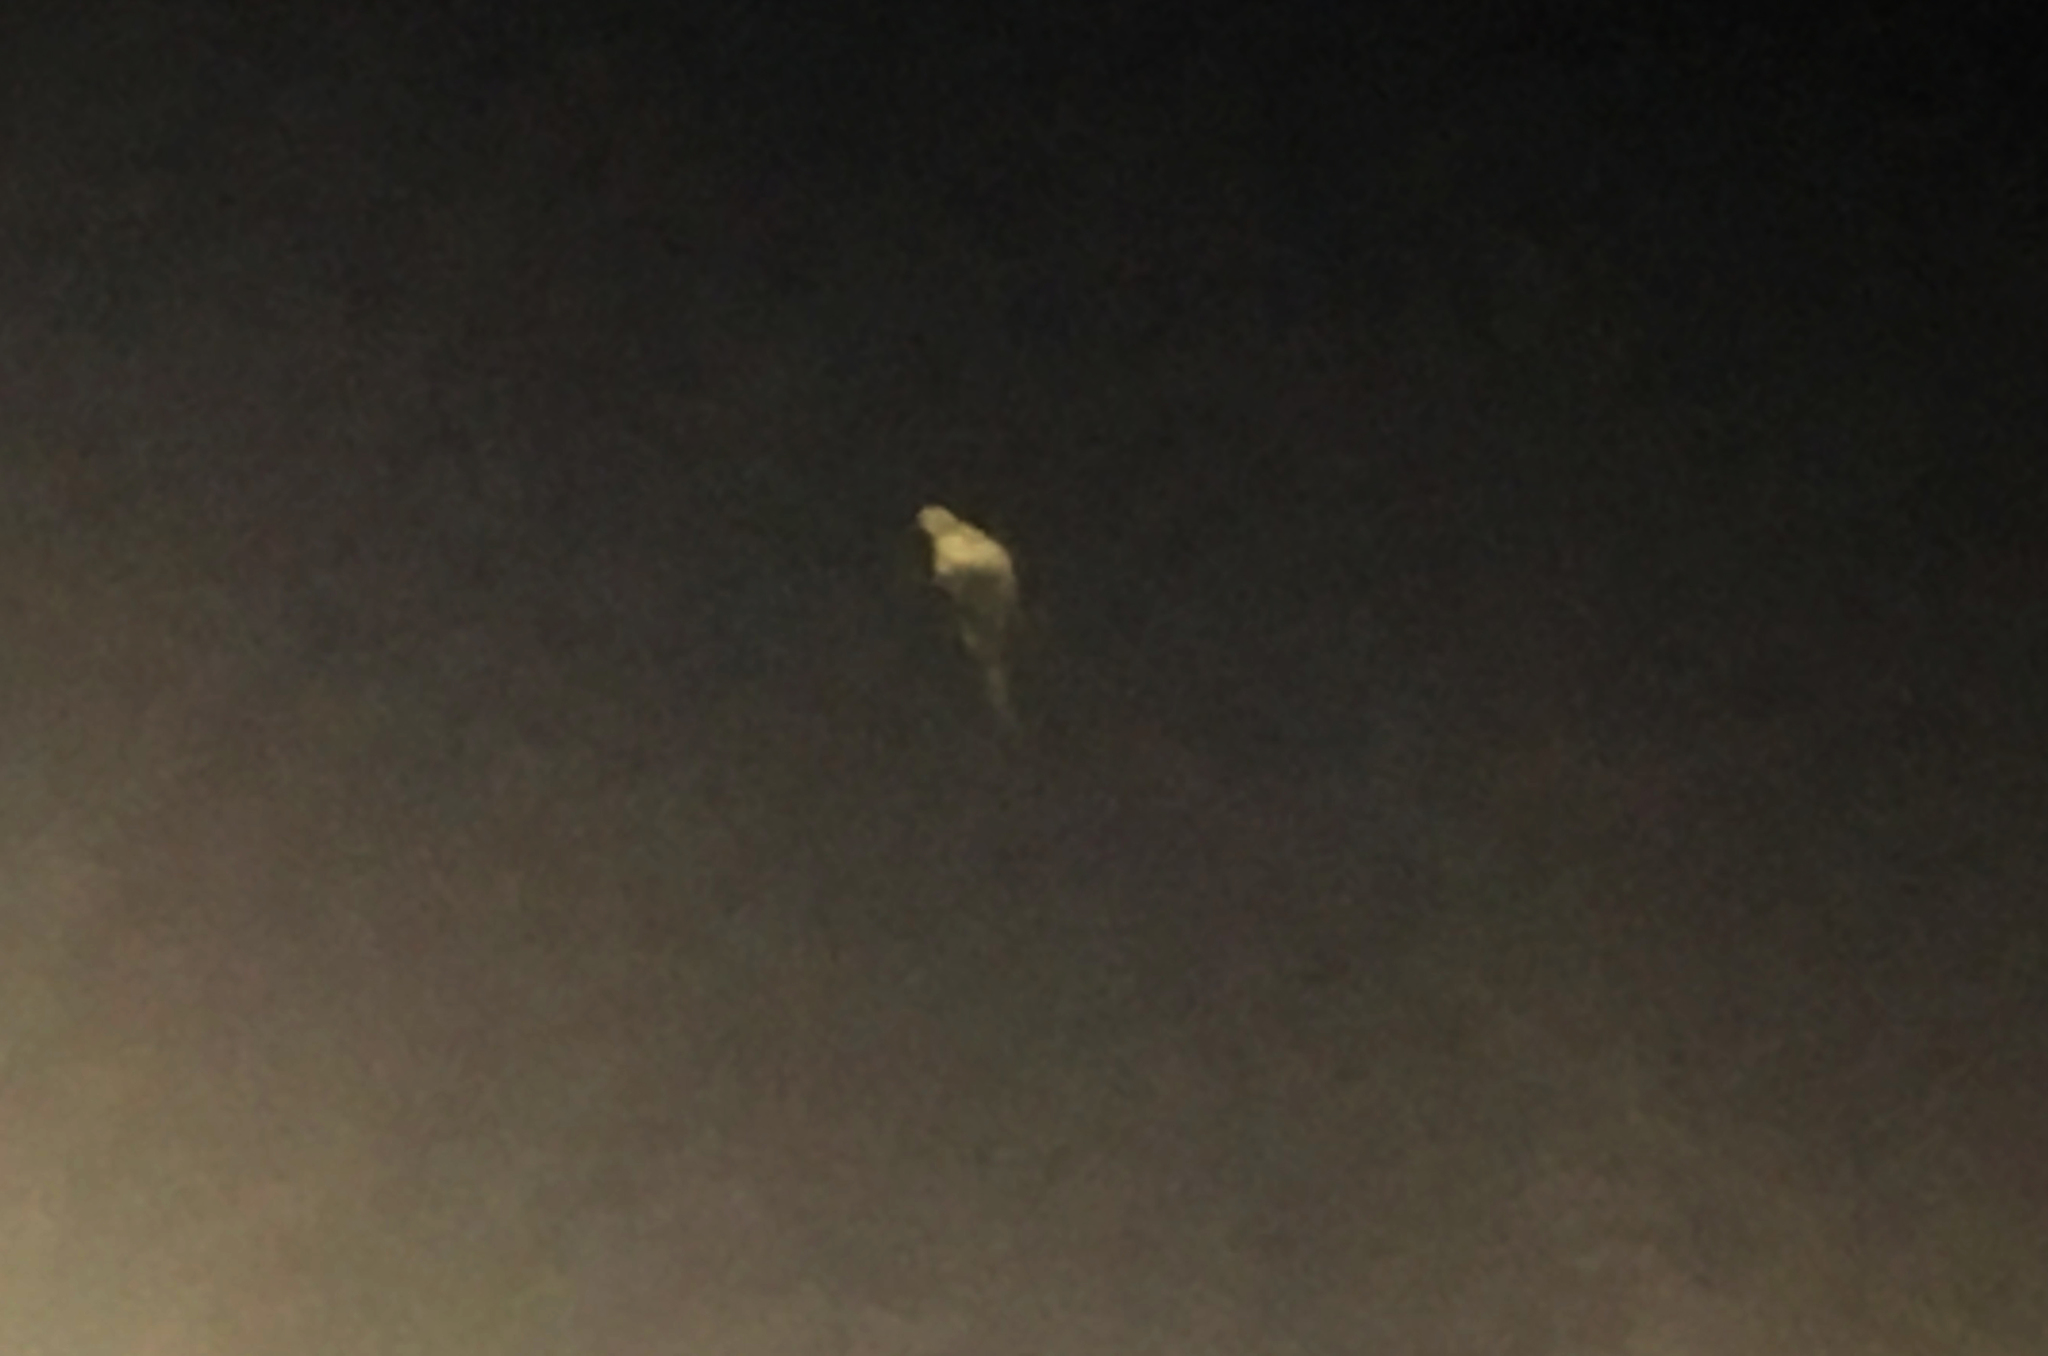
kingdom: Animalia
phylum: Chordata
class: Aves
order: Columbiformes
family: Columbidae
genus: Zenaida
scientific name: Zenaida macroura
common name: Mourning dove
